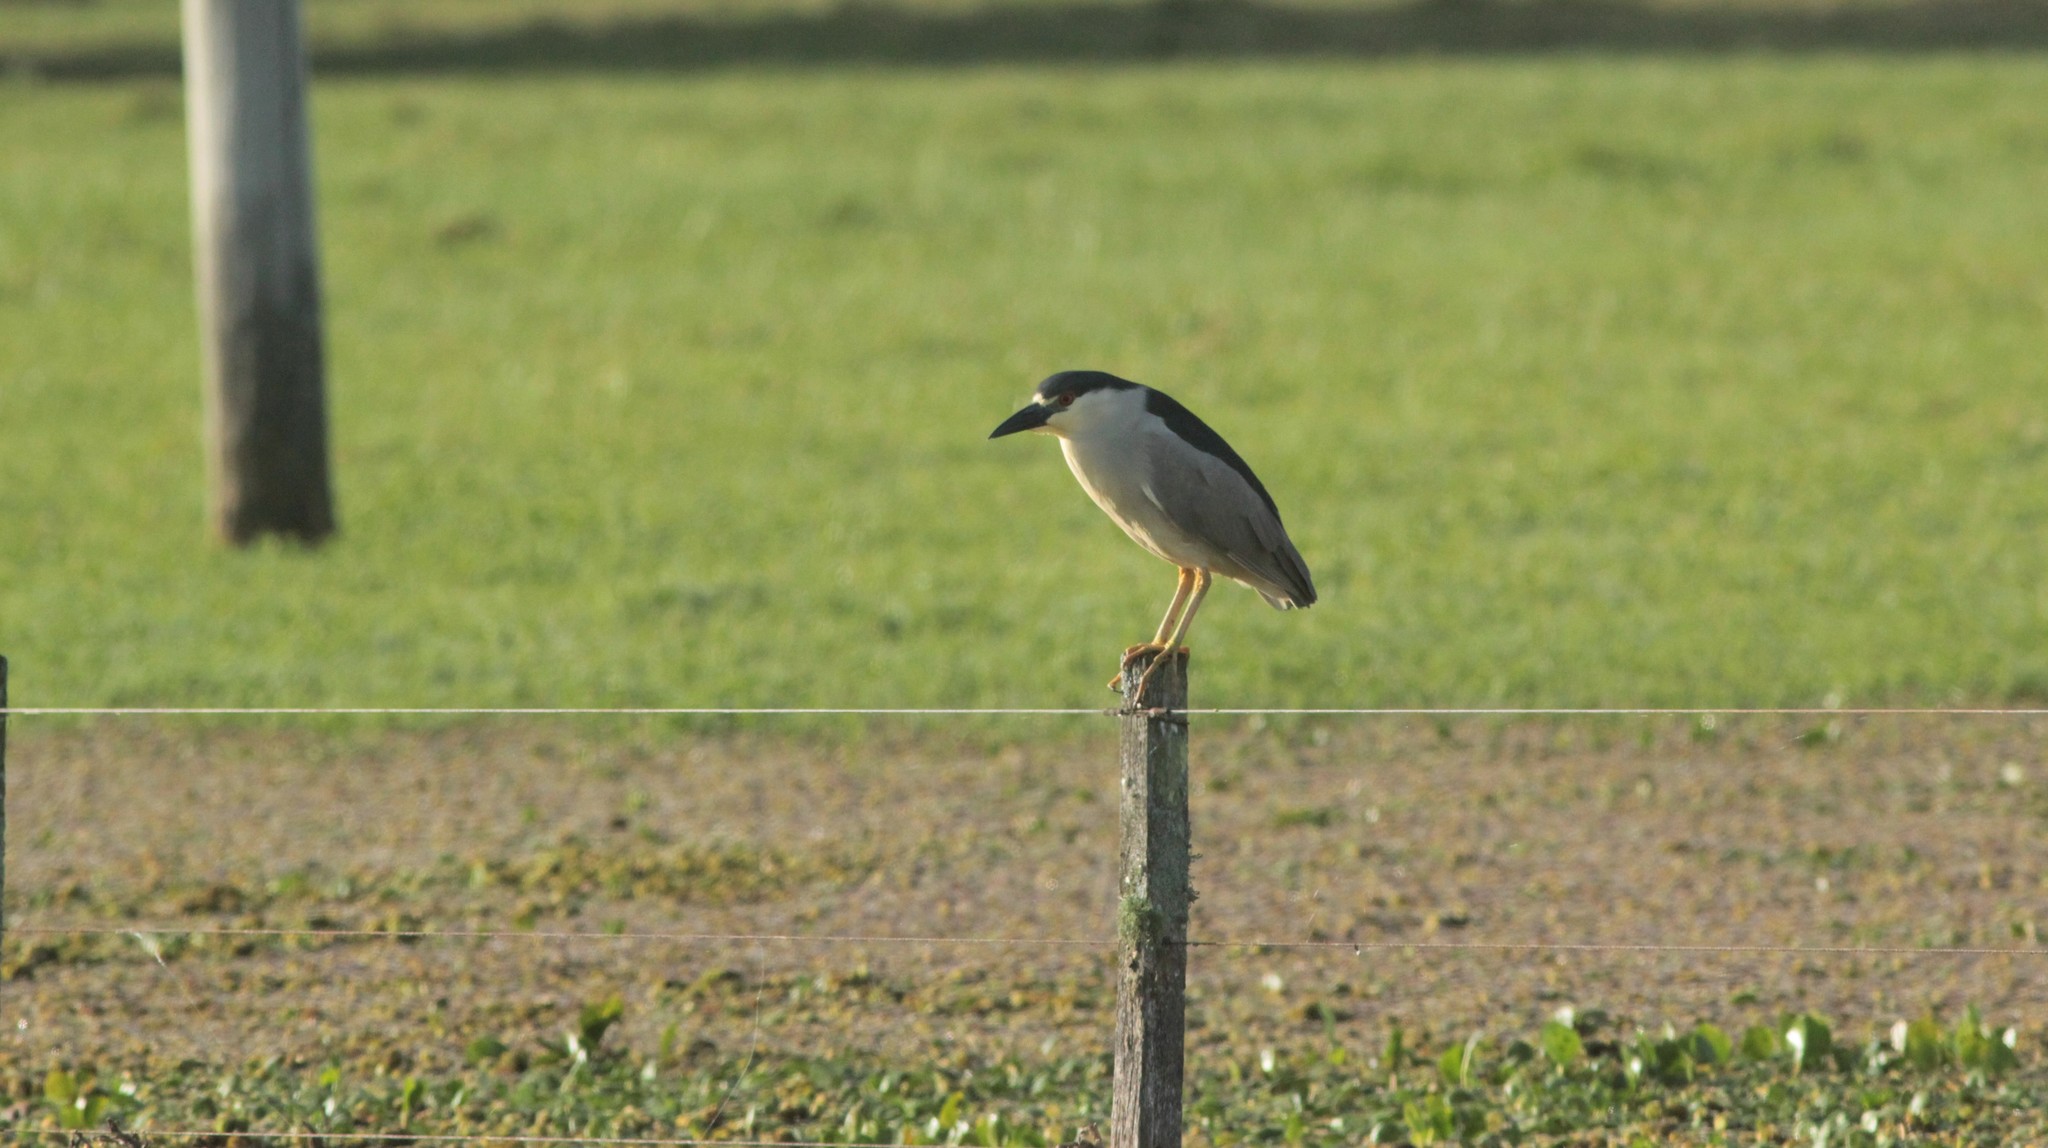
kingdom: Animalia
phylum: Chordata
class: Aves
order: Pelecaniformes
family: Ardeidae
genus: Nycticorax
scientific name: Nycticorax nycticorax
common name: Black-crowned night heron
